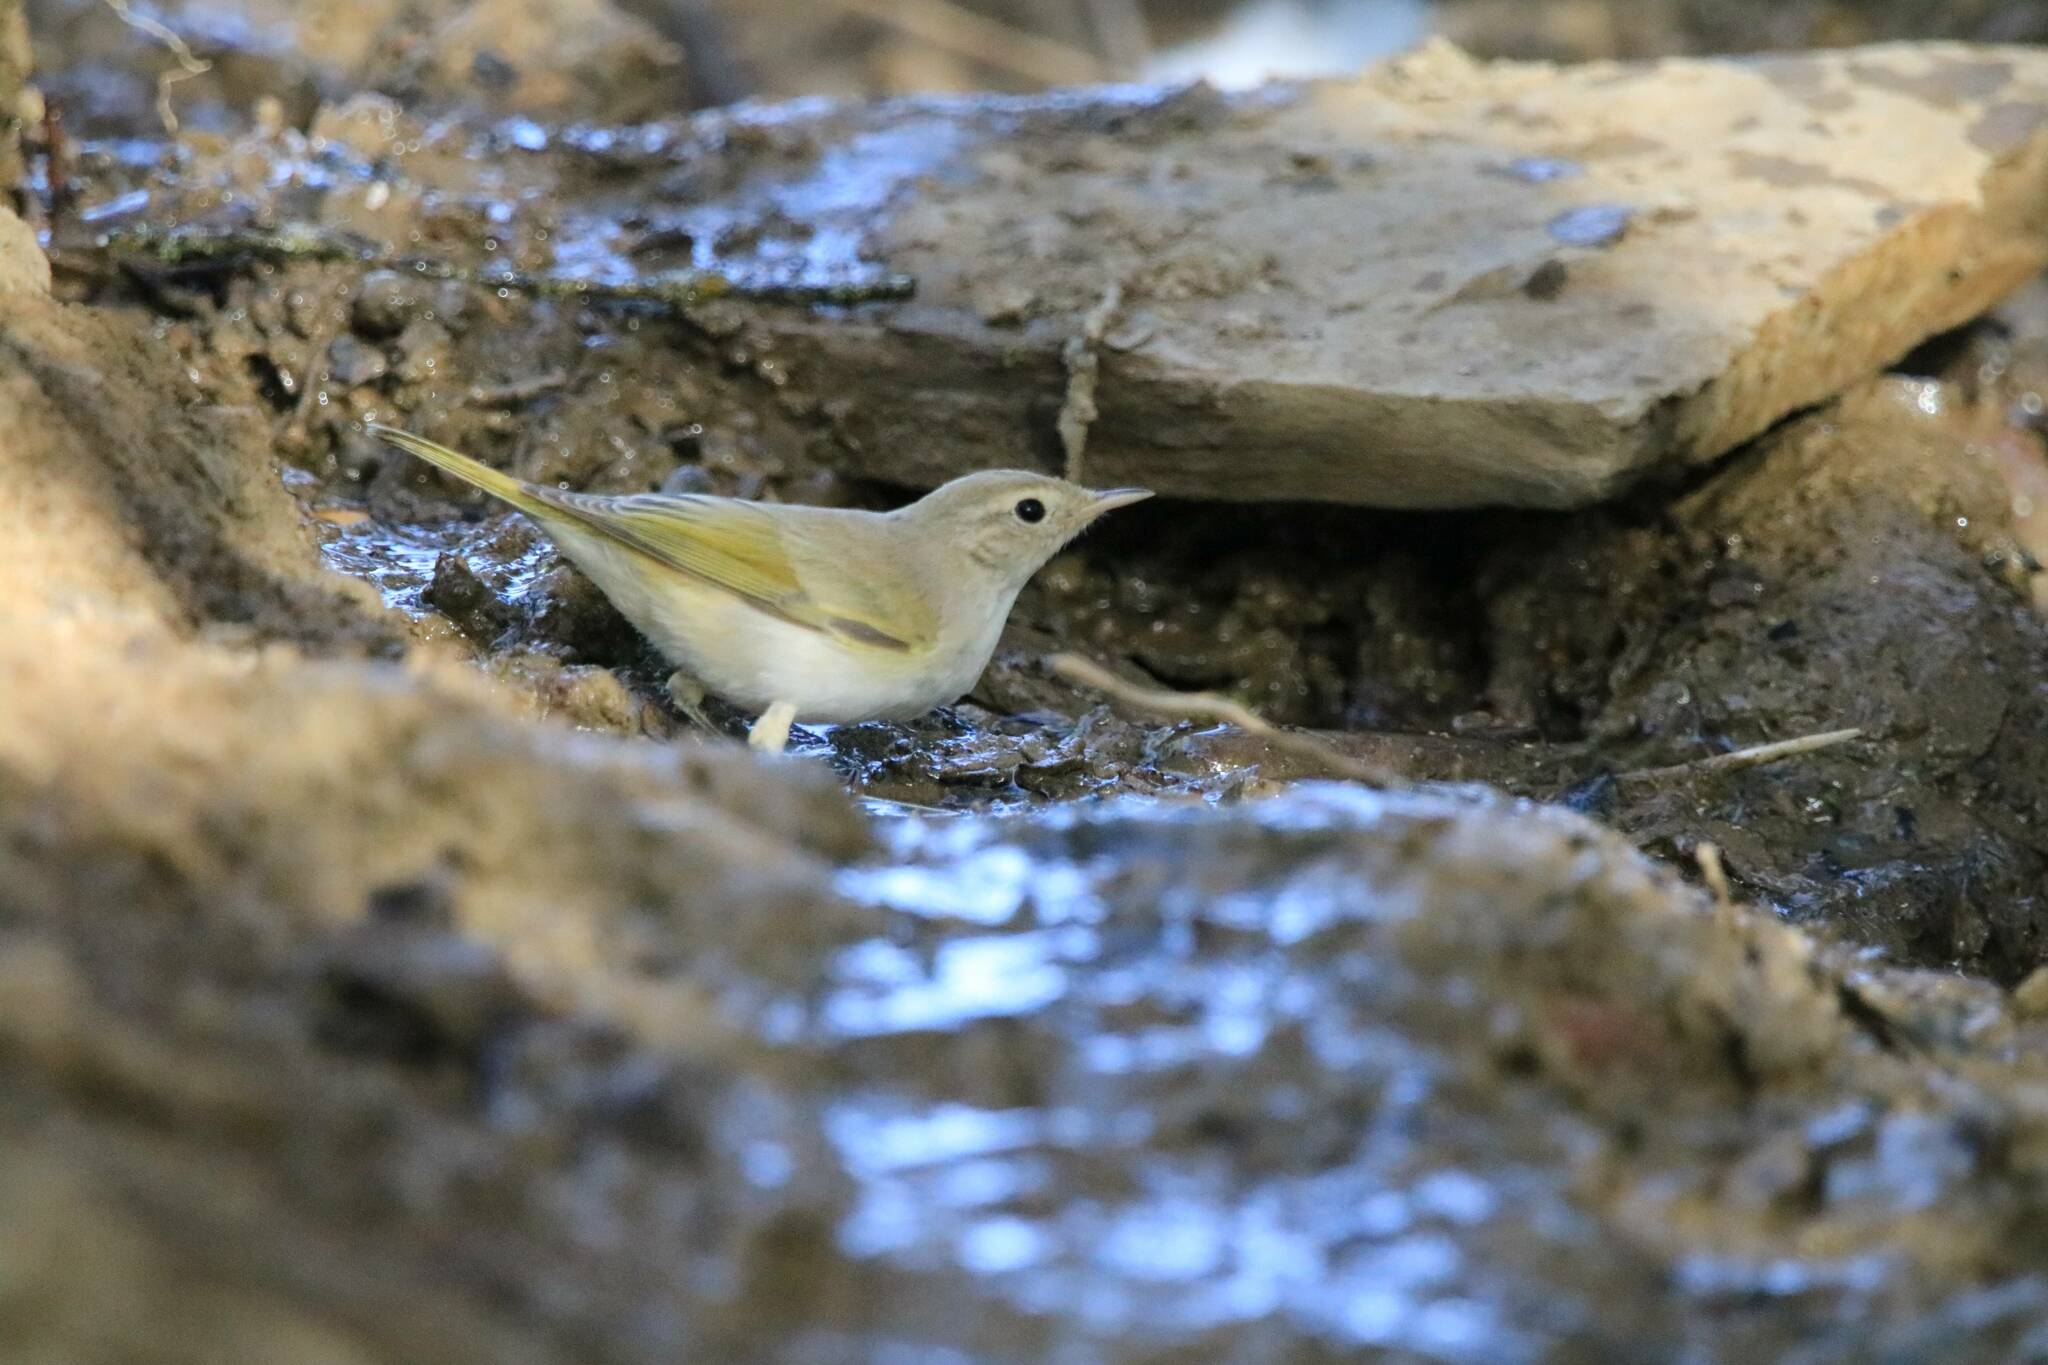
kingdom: Animalia
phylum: Chordata
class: Aves
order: Passeriformes
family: Phylloscopidae
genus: Phylloscopus
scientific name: Phylloscopus bonelli
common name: Western bonelli's warbler
